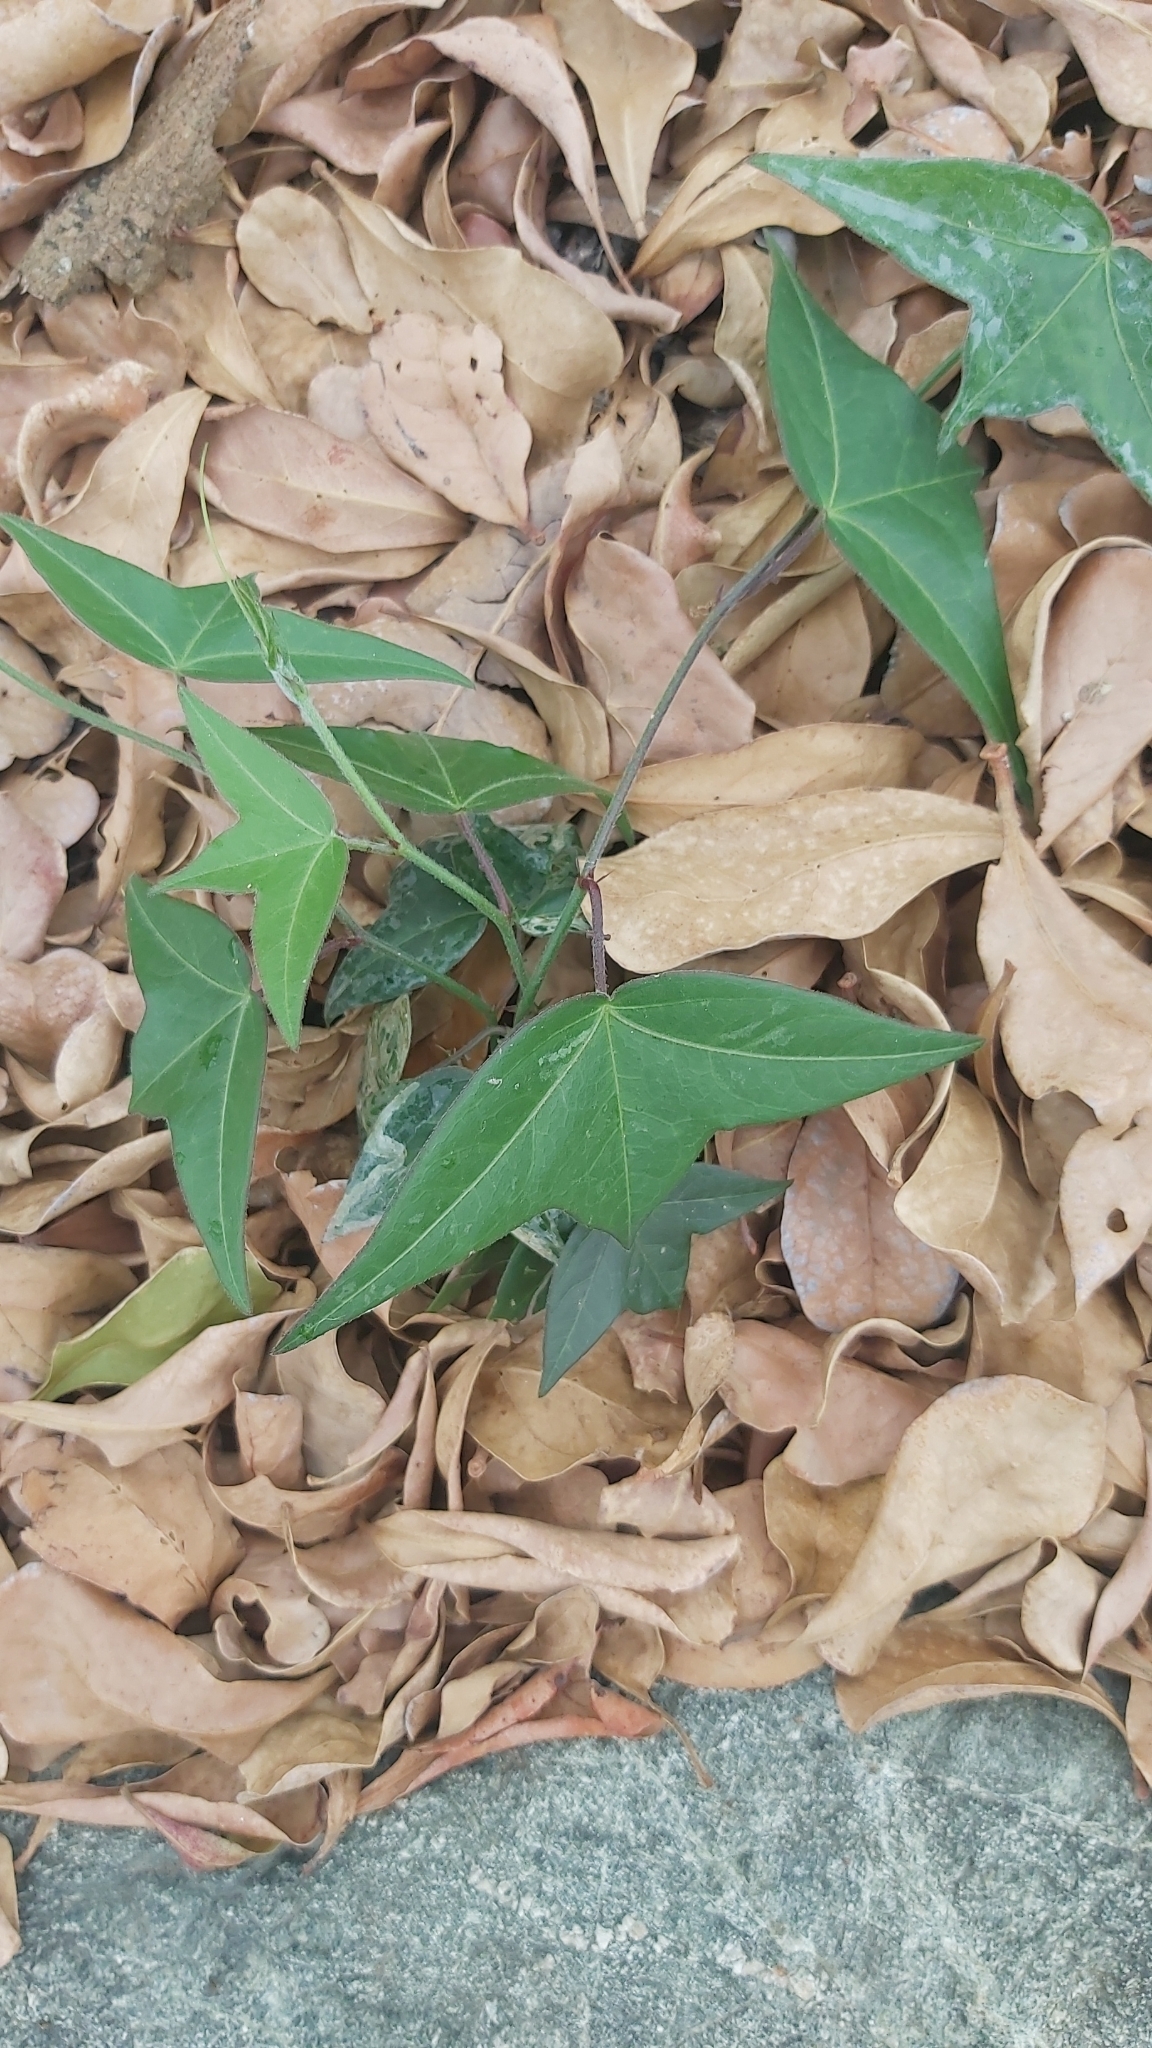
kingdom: Plantae
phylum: Tracheophyta
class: Magnoliopsida
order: Malpighiales
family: Passifloraceae
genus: Passiflora
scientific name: Passiflora suberosa
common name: Wild passionfruit
